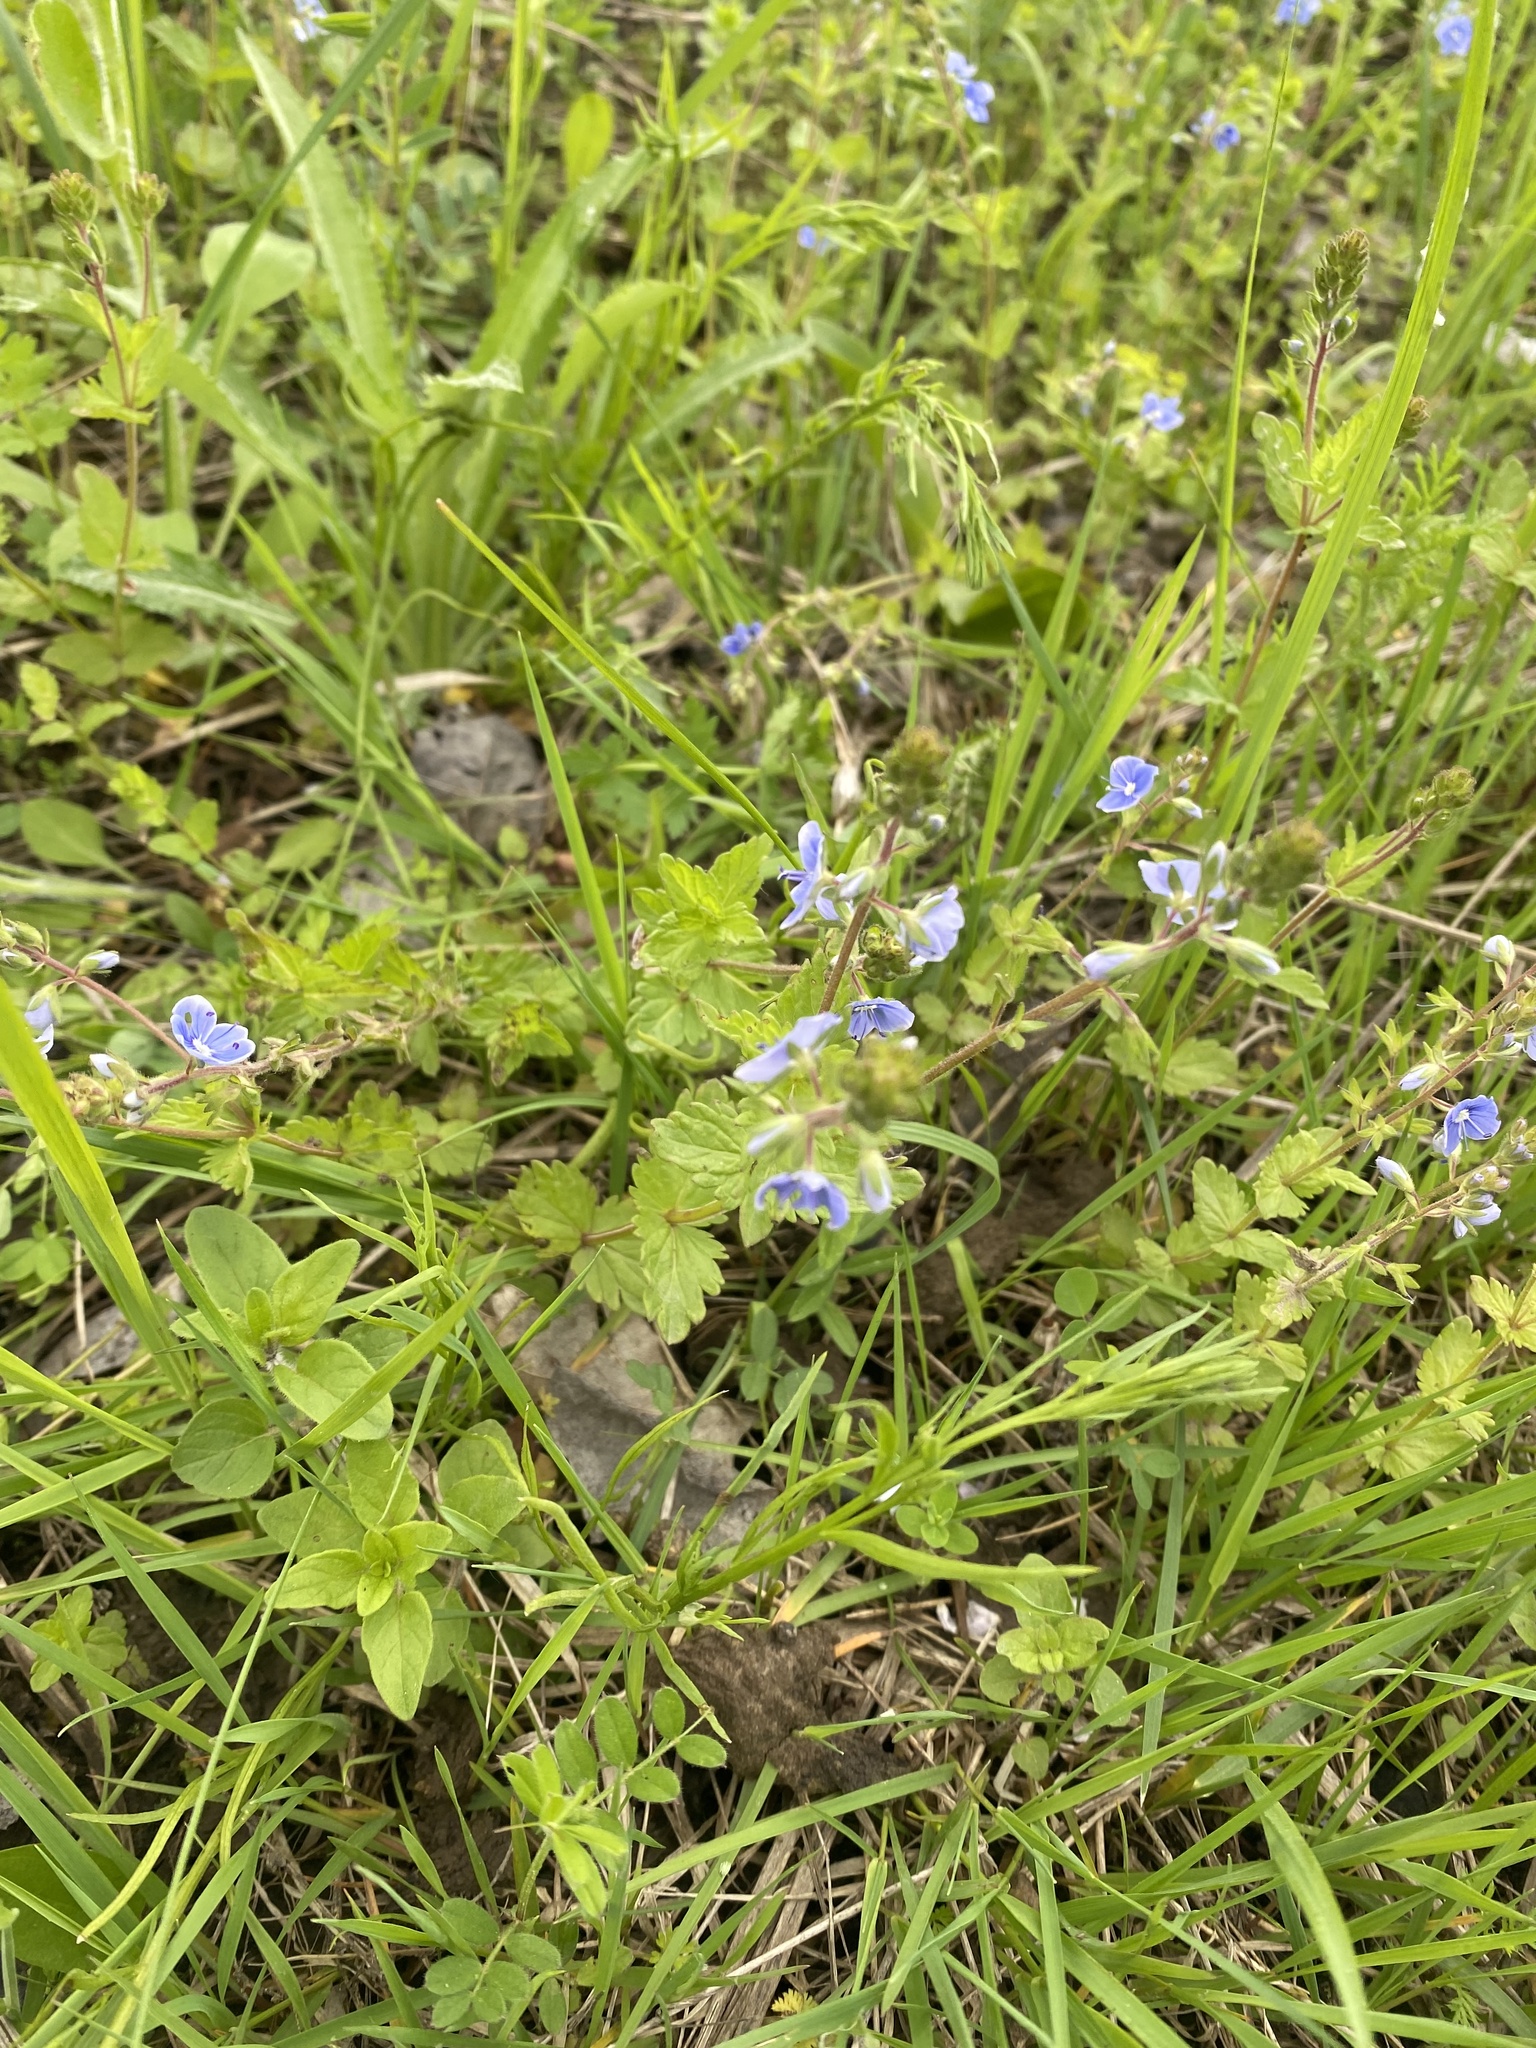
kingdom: Plantae
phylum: Tracheophyta
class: Magnoliopsida
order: Lamiales
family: Plantaginaceae
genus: Veronica
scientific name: Veronica chamaedrys
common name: Germander speedwell
